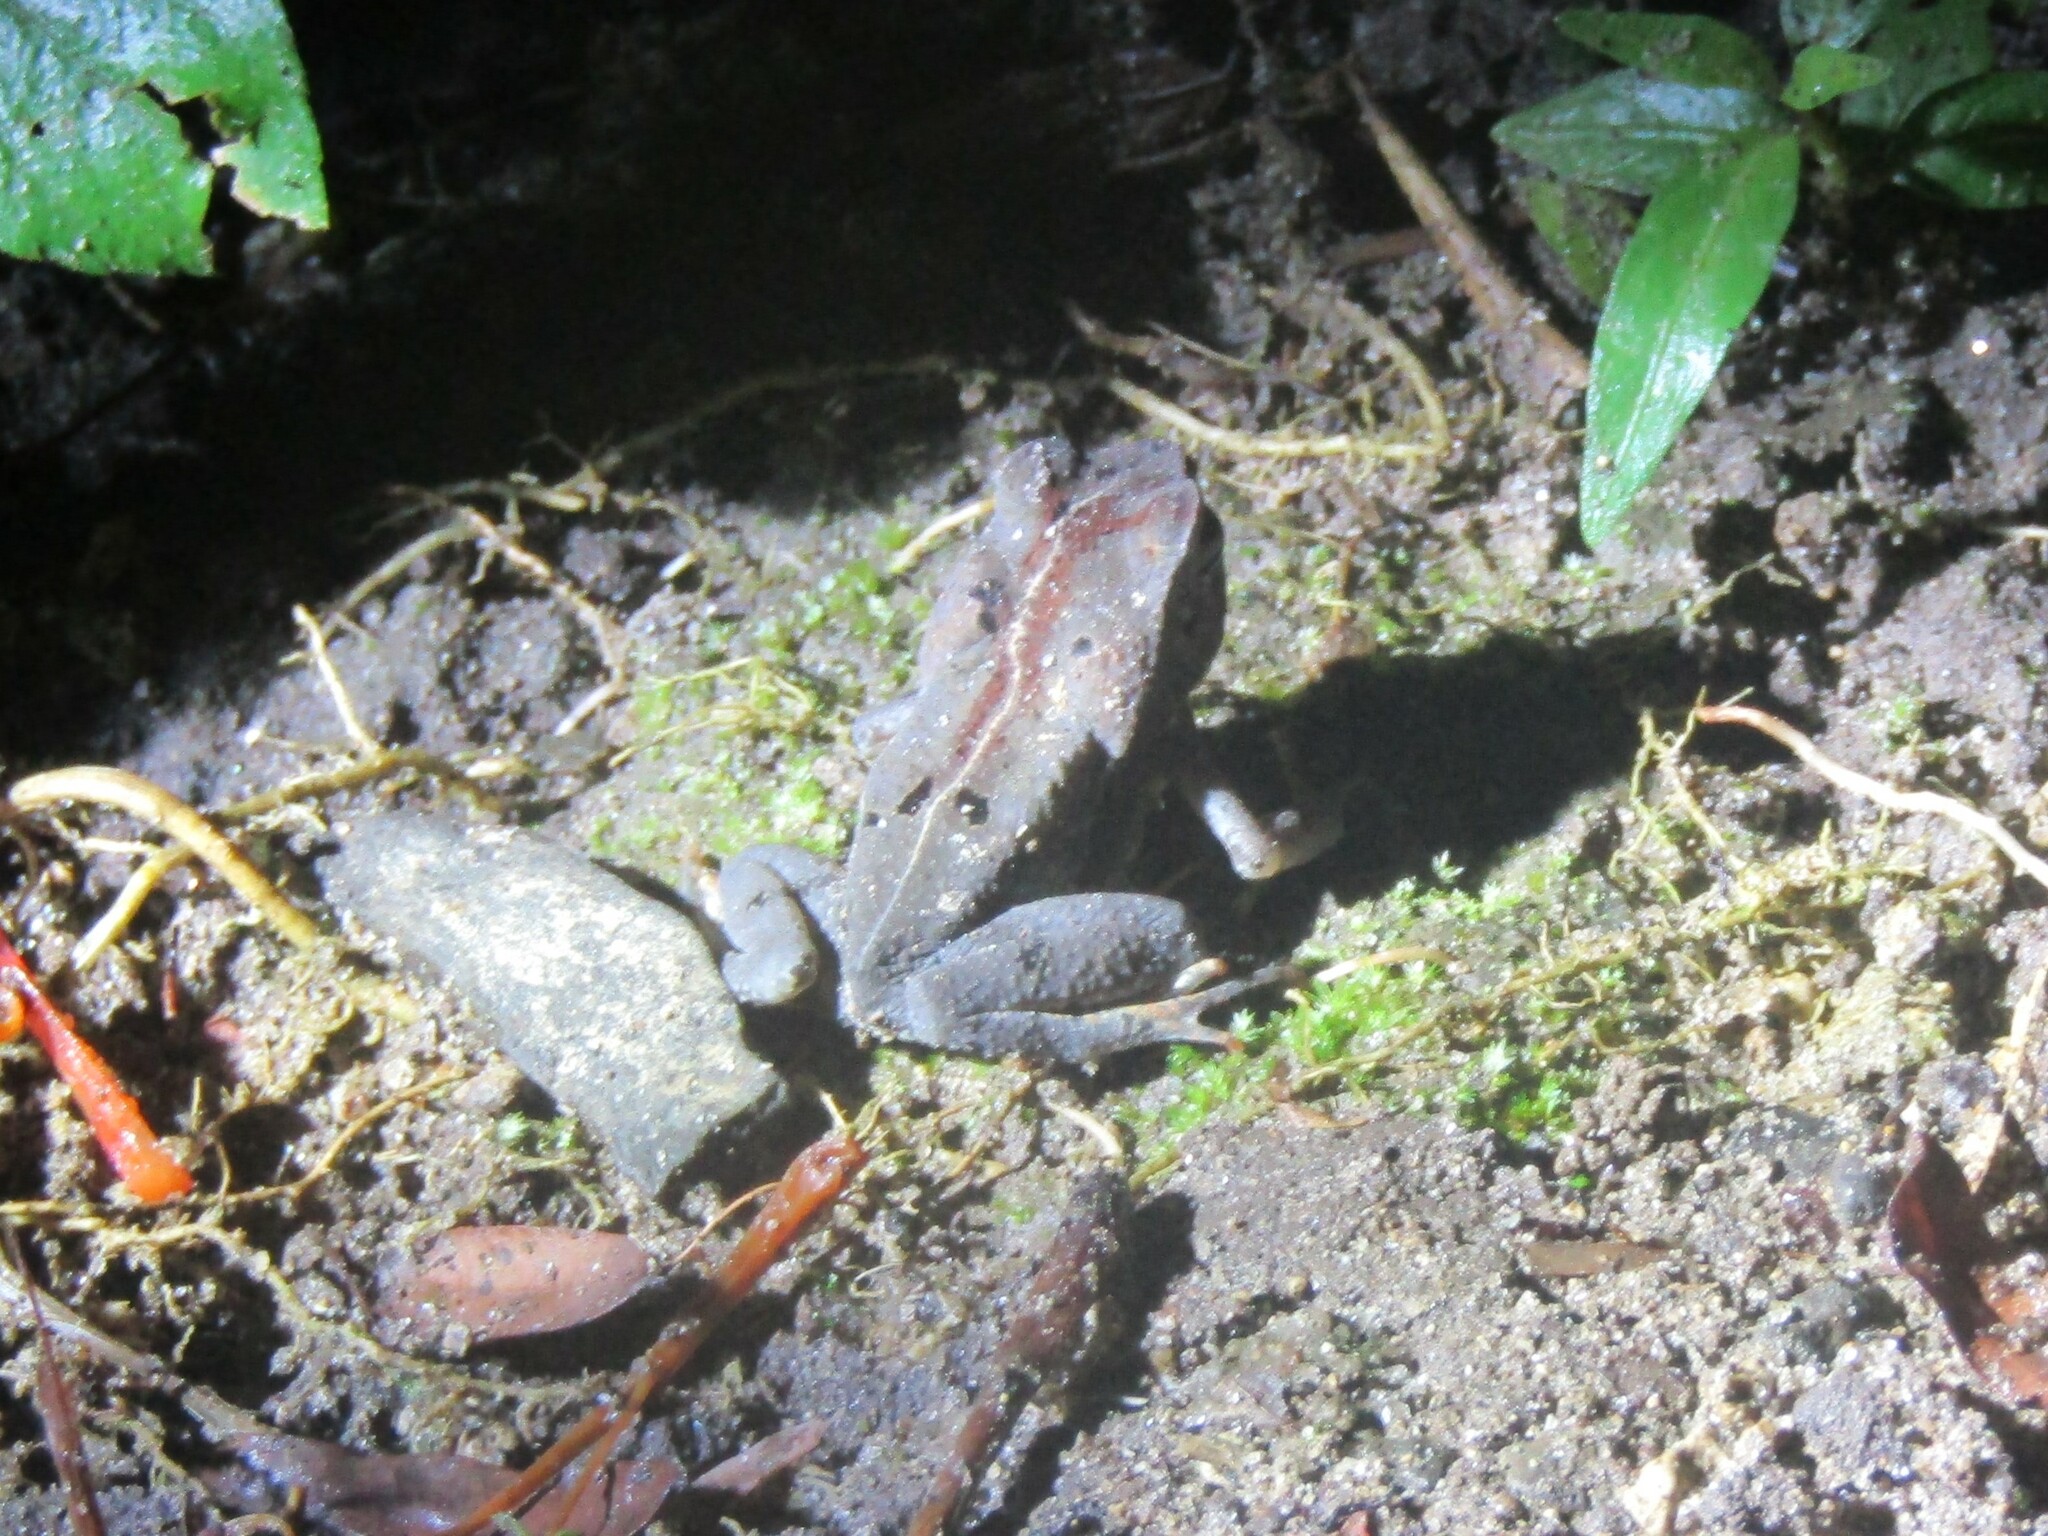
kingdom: Animalia
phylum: Chordata
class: Amphibia
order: Anura
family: Bufonidae
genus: Rhaebo
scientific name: Rhaebo haematiticus
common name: Truando toad
